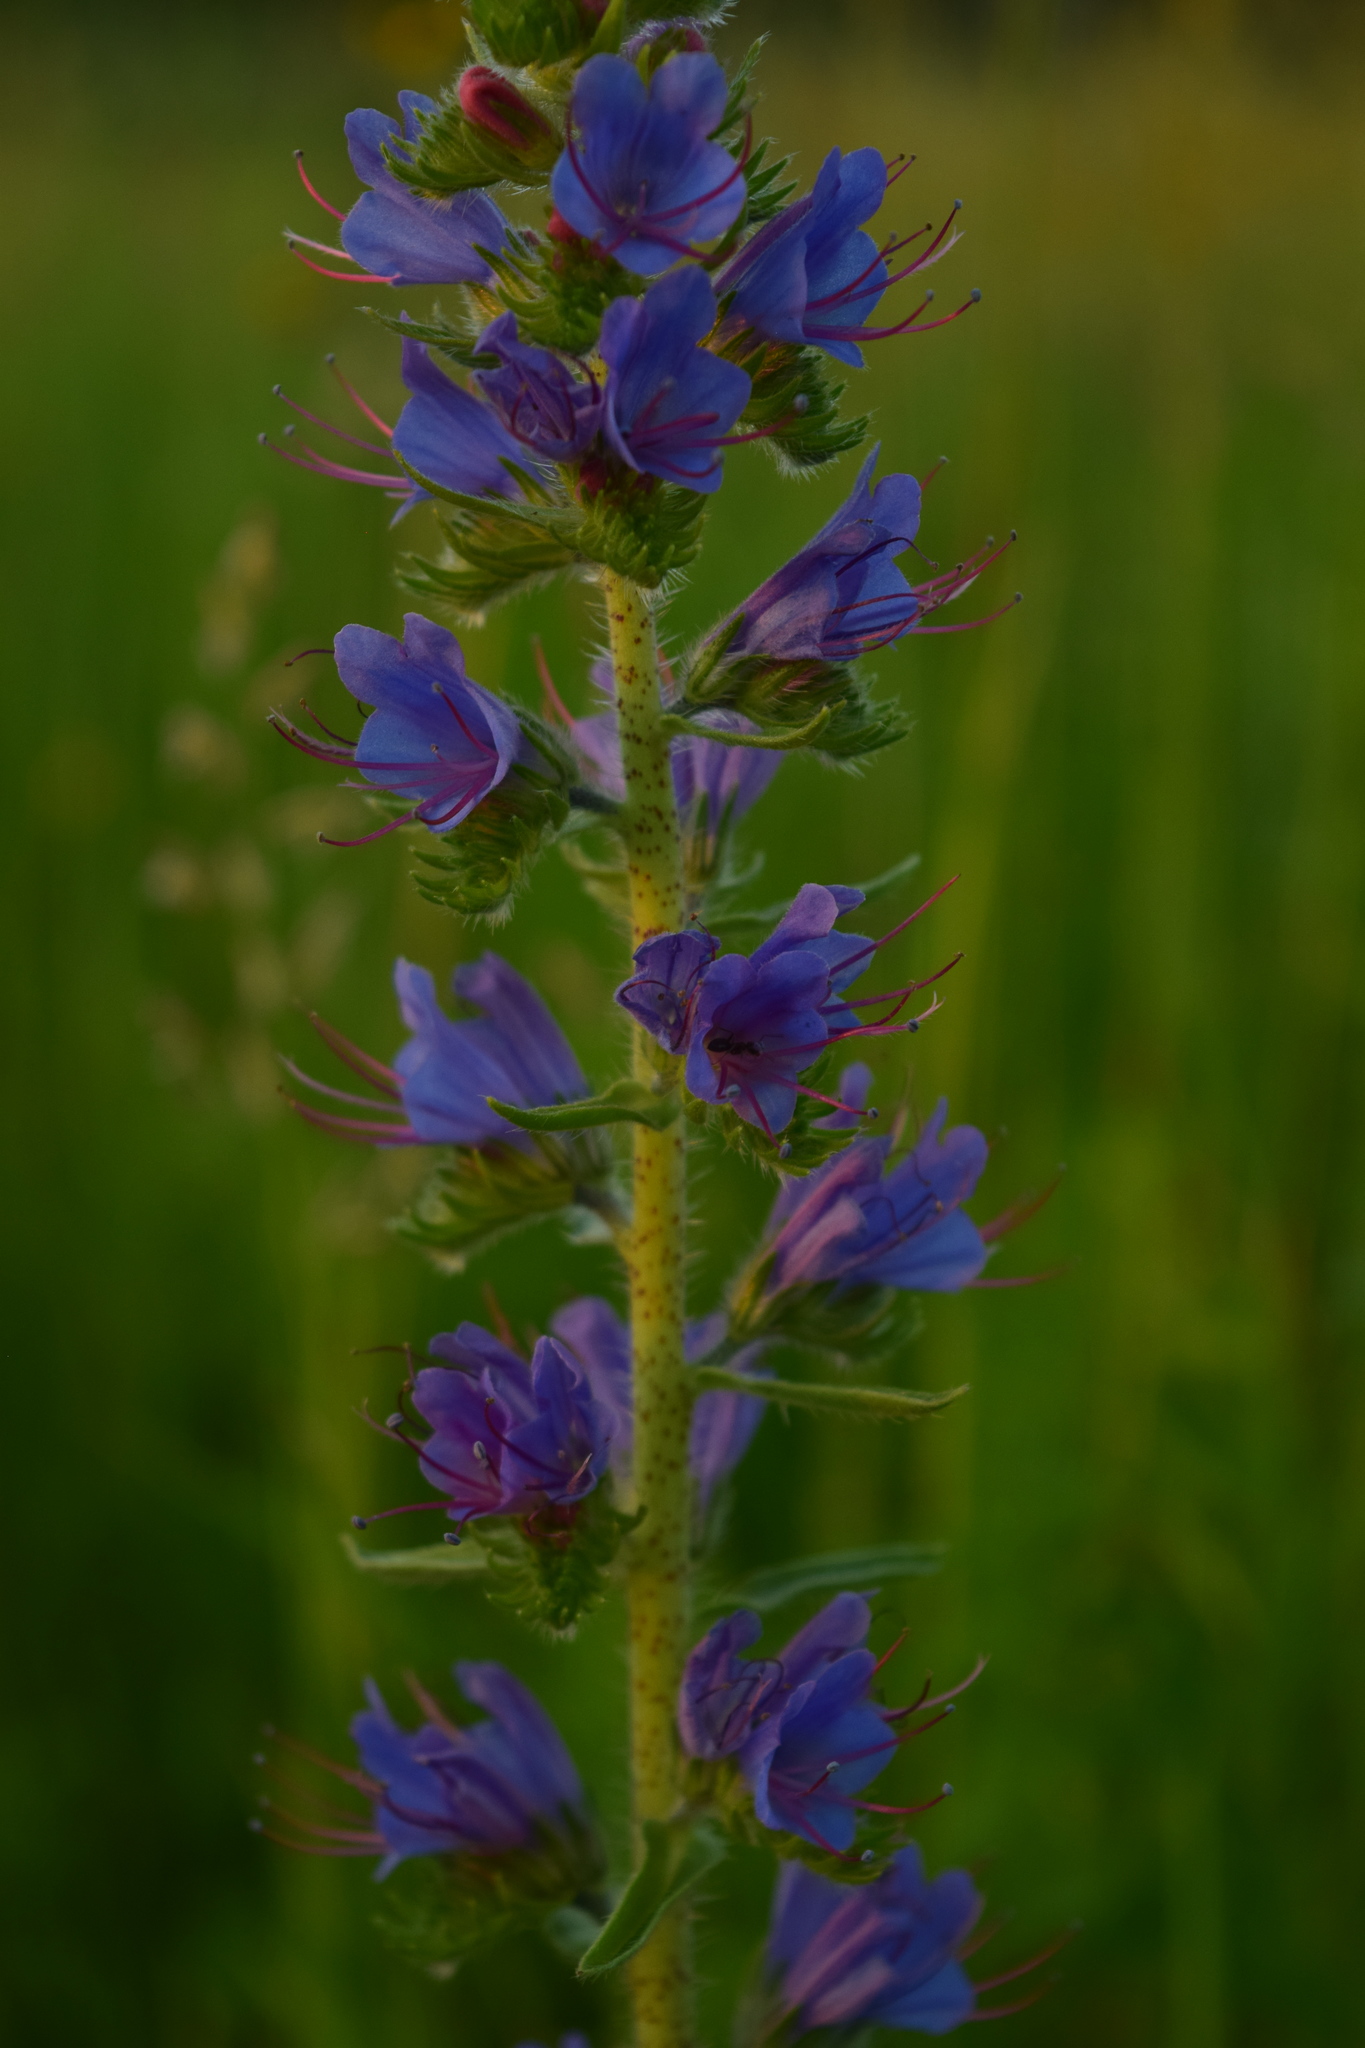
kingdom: Plantae
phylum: Tracheophyta
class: Magnoliopsida
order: Boraginales
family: Boraginaceae
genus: Echium
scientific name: Echium vulgare
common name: Common viper's bugloss
